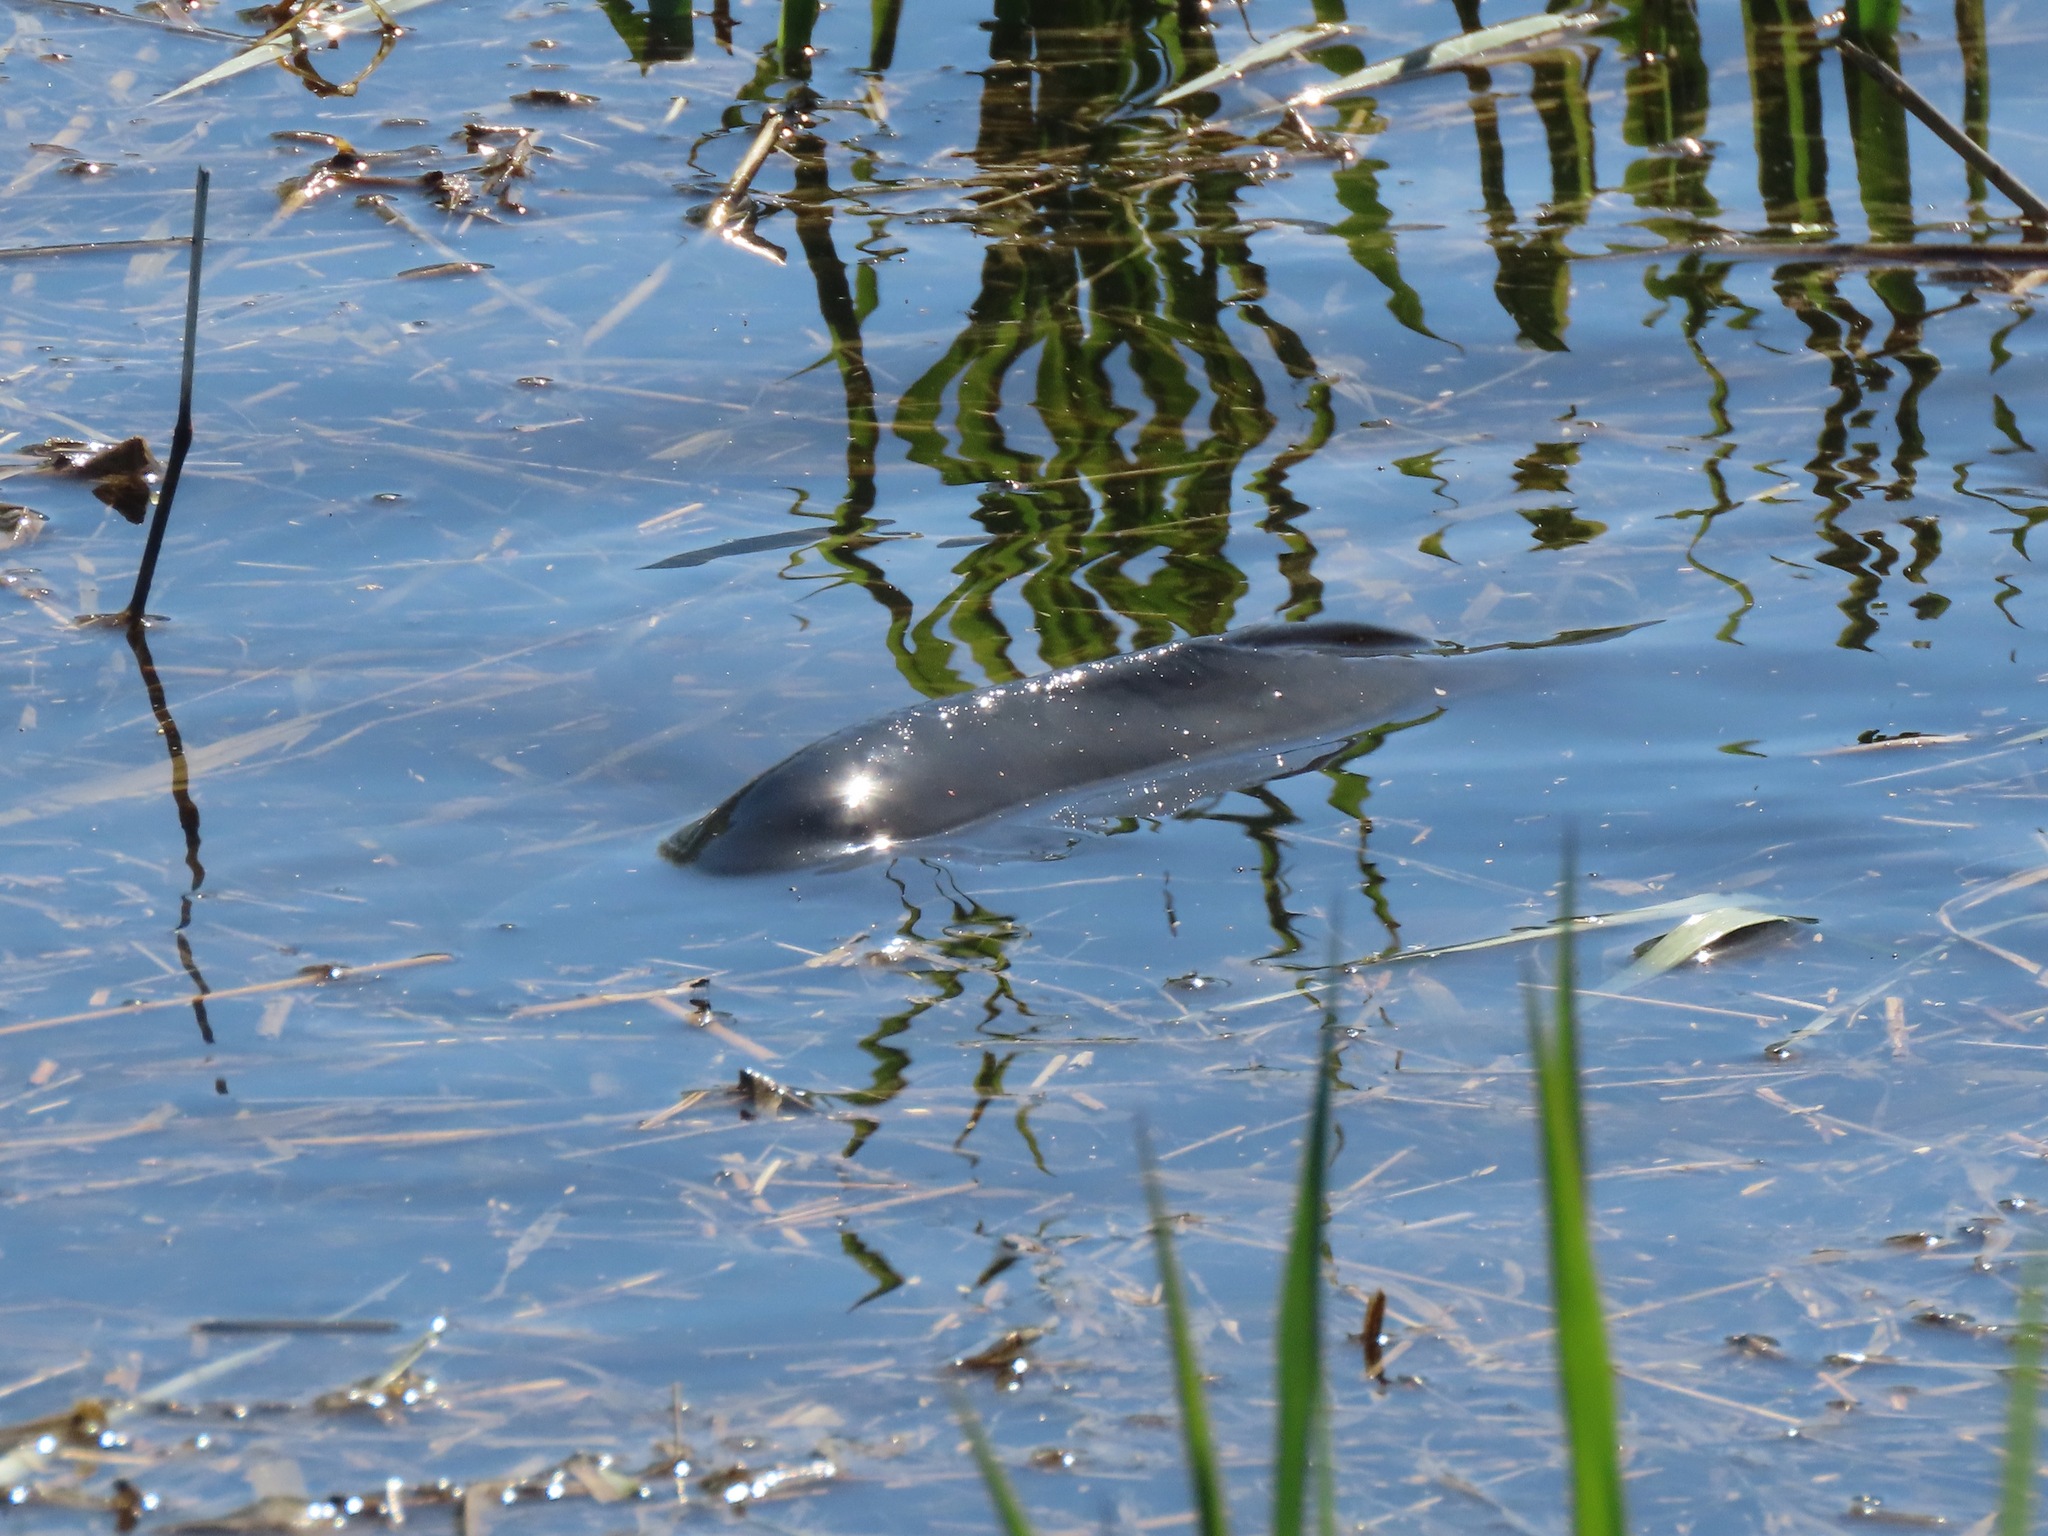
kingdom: Animalia
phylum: Chordata
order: Cypriniformes
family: Cyprinidae
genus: Cyprinus
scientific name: Cyprinus carpio
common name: Common carp
